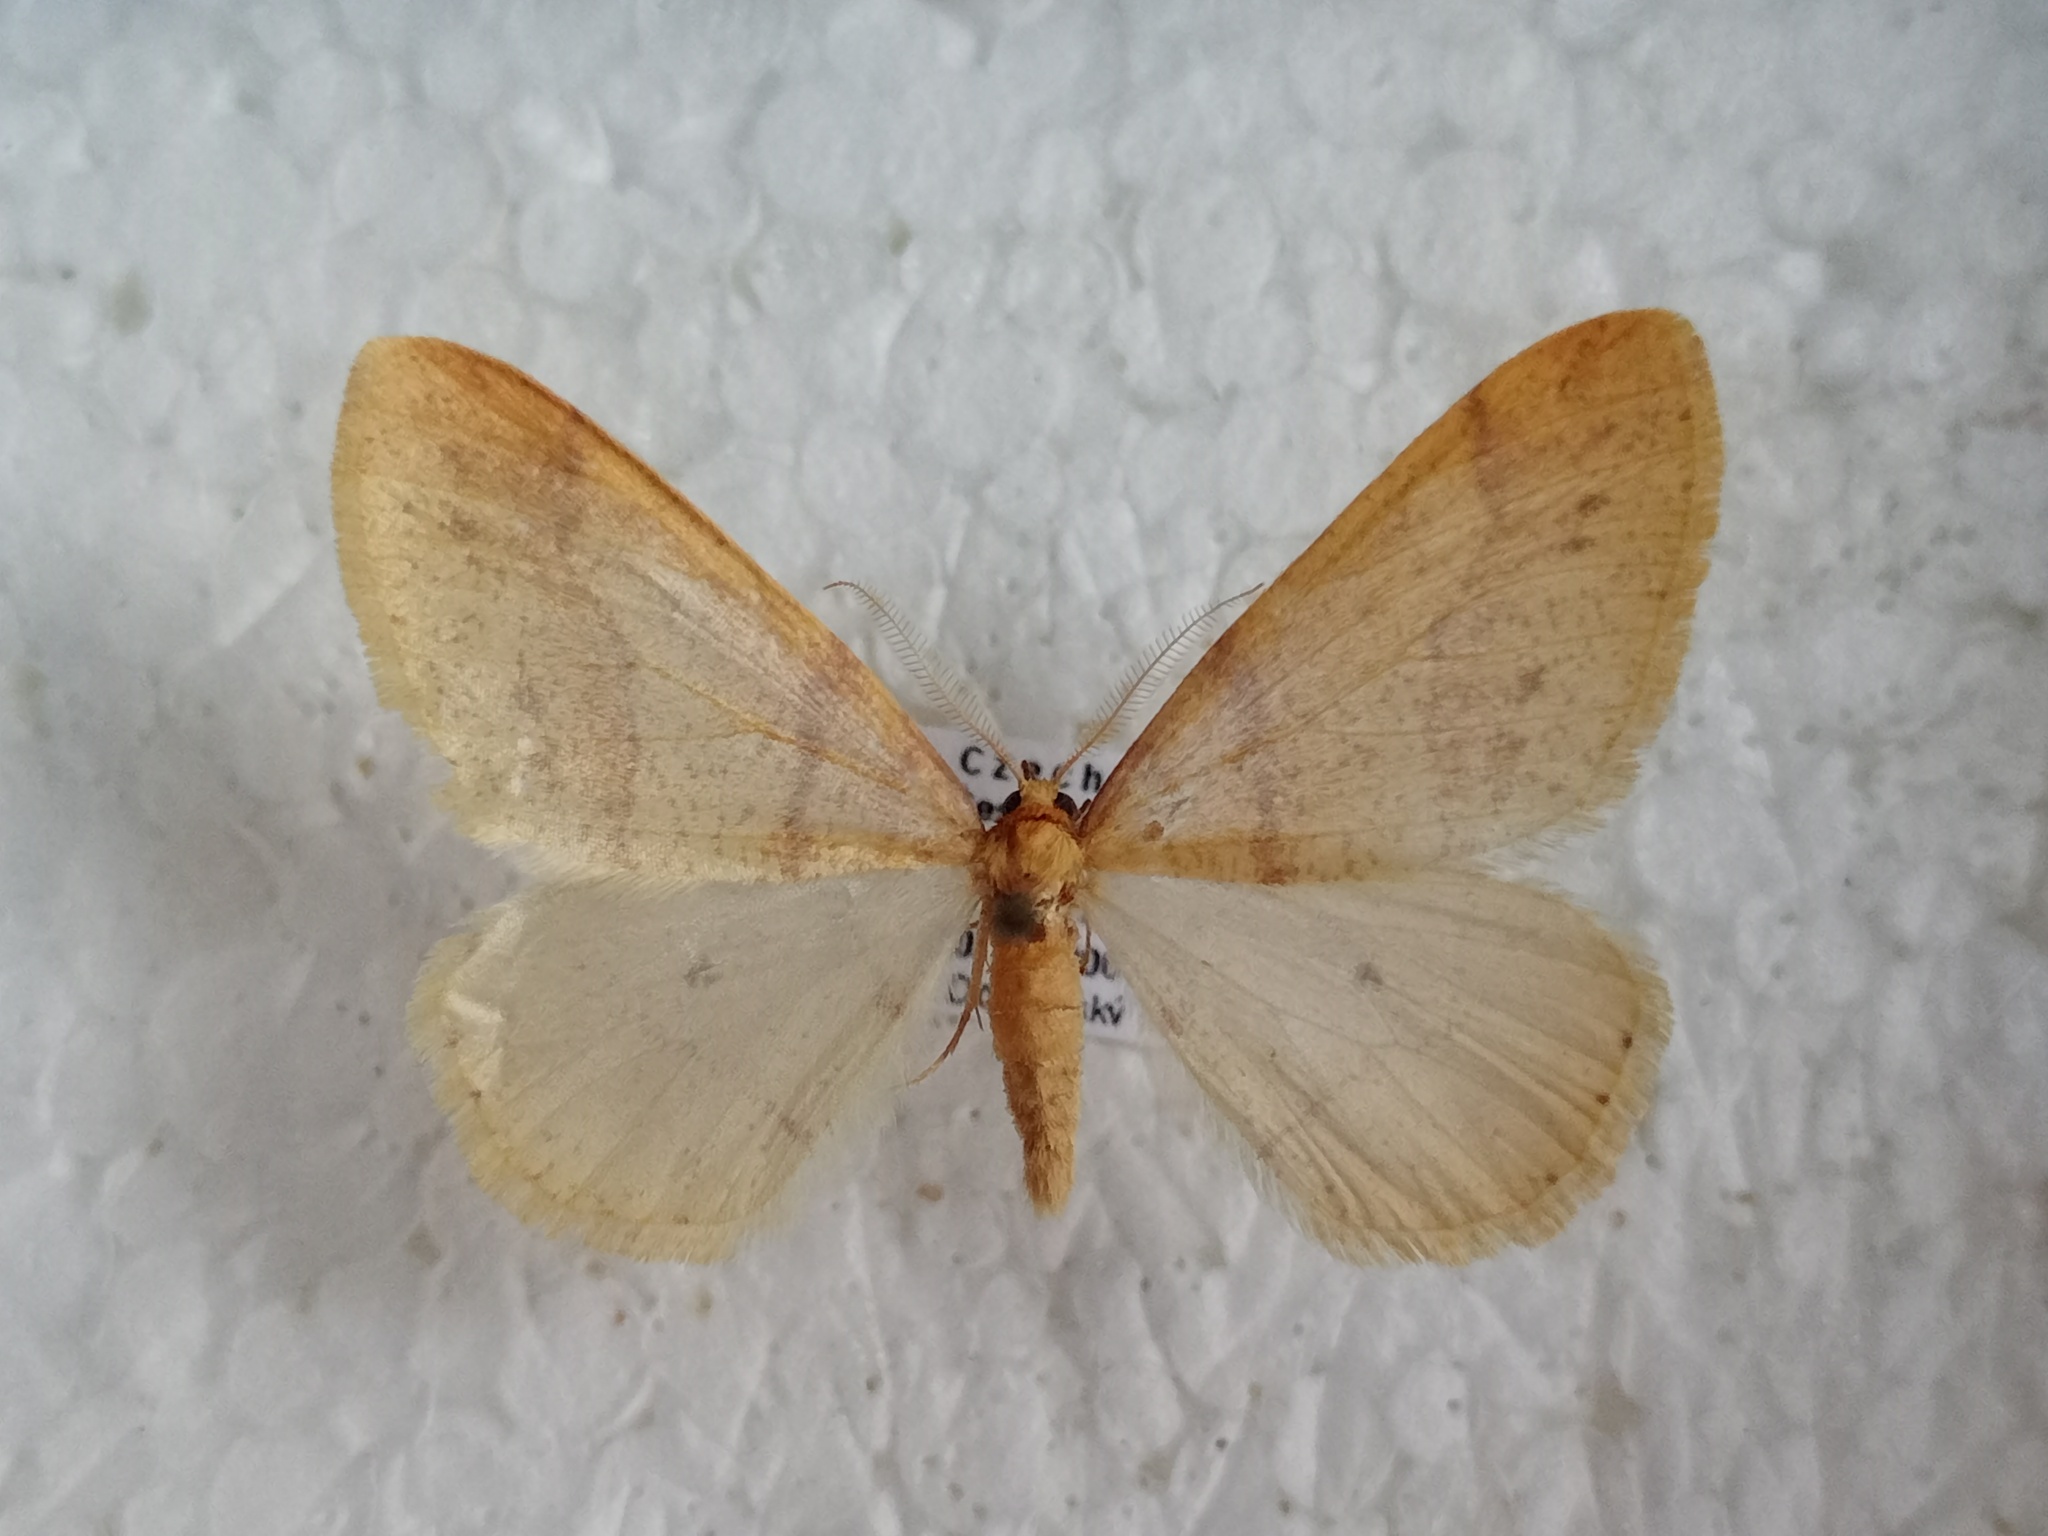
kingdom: Animalia
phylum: Arthropoda
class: Insecta
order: Lepidoptera
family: Geometridae
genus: Agriopis
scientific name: Agriopis aurantiaria
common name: Scarce umber
